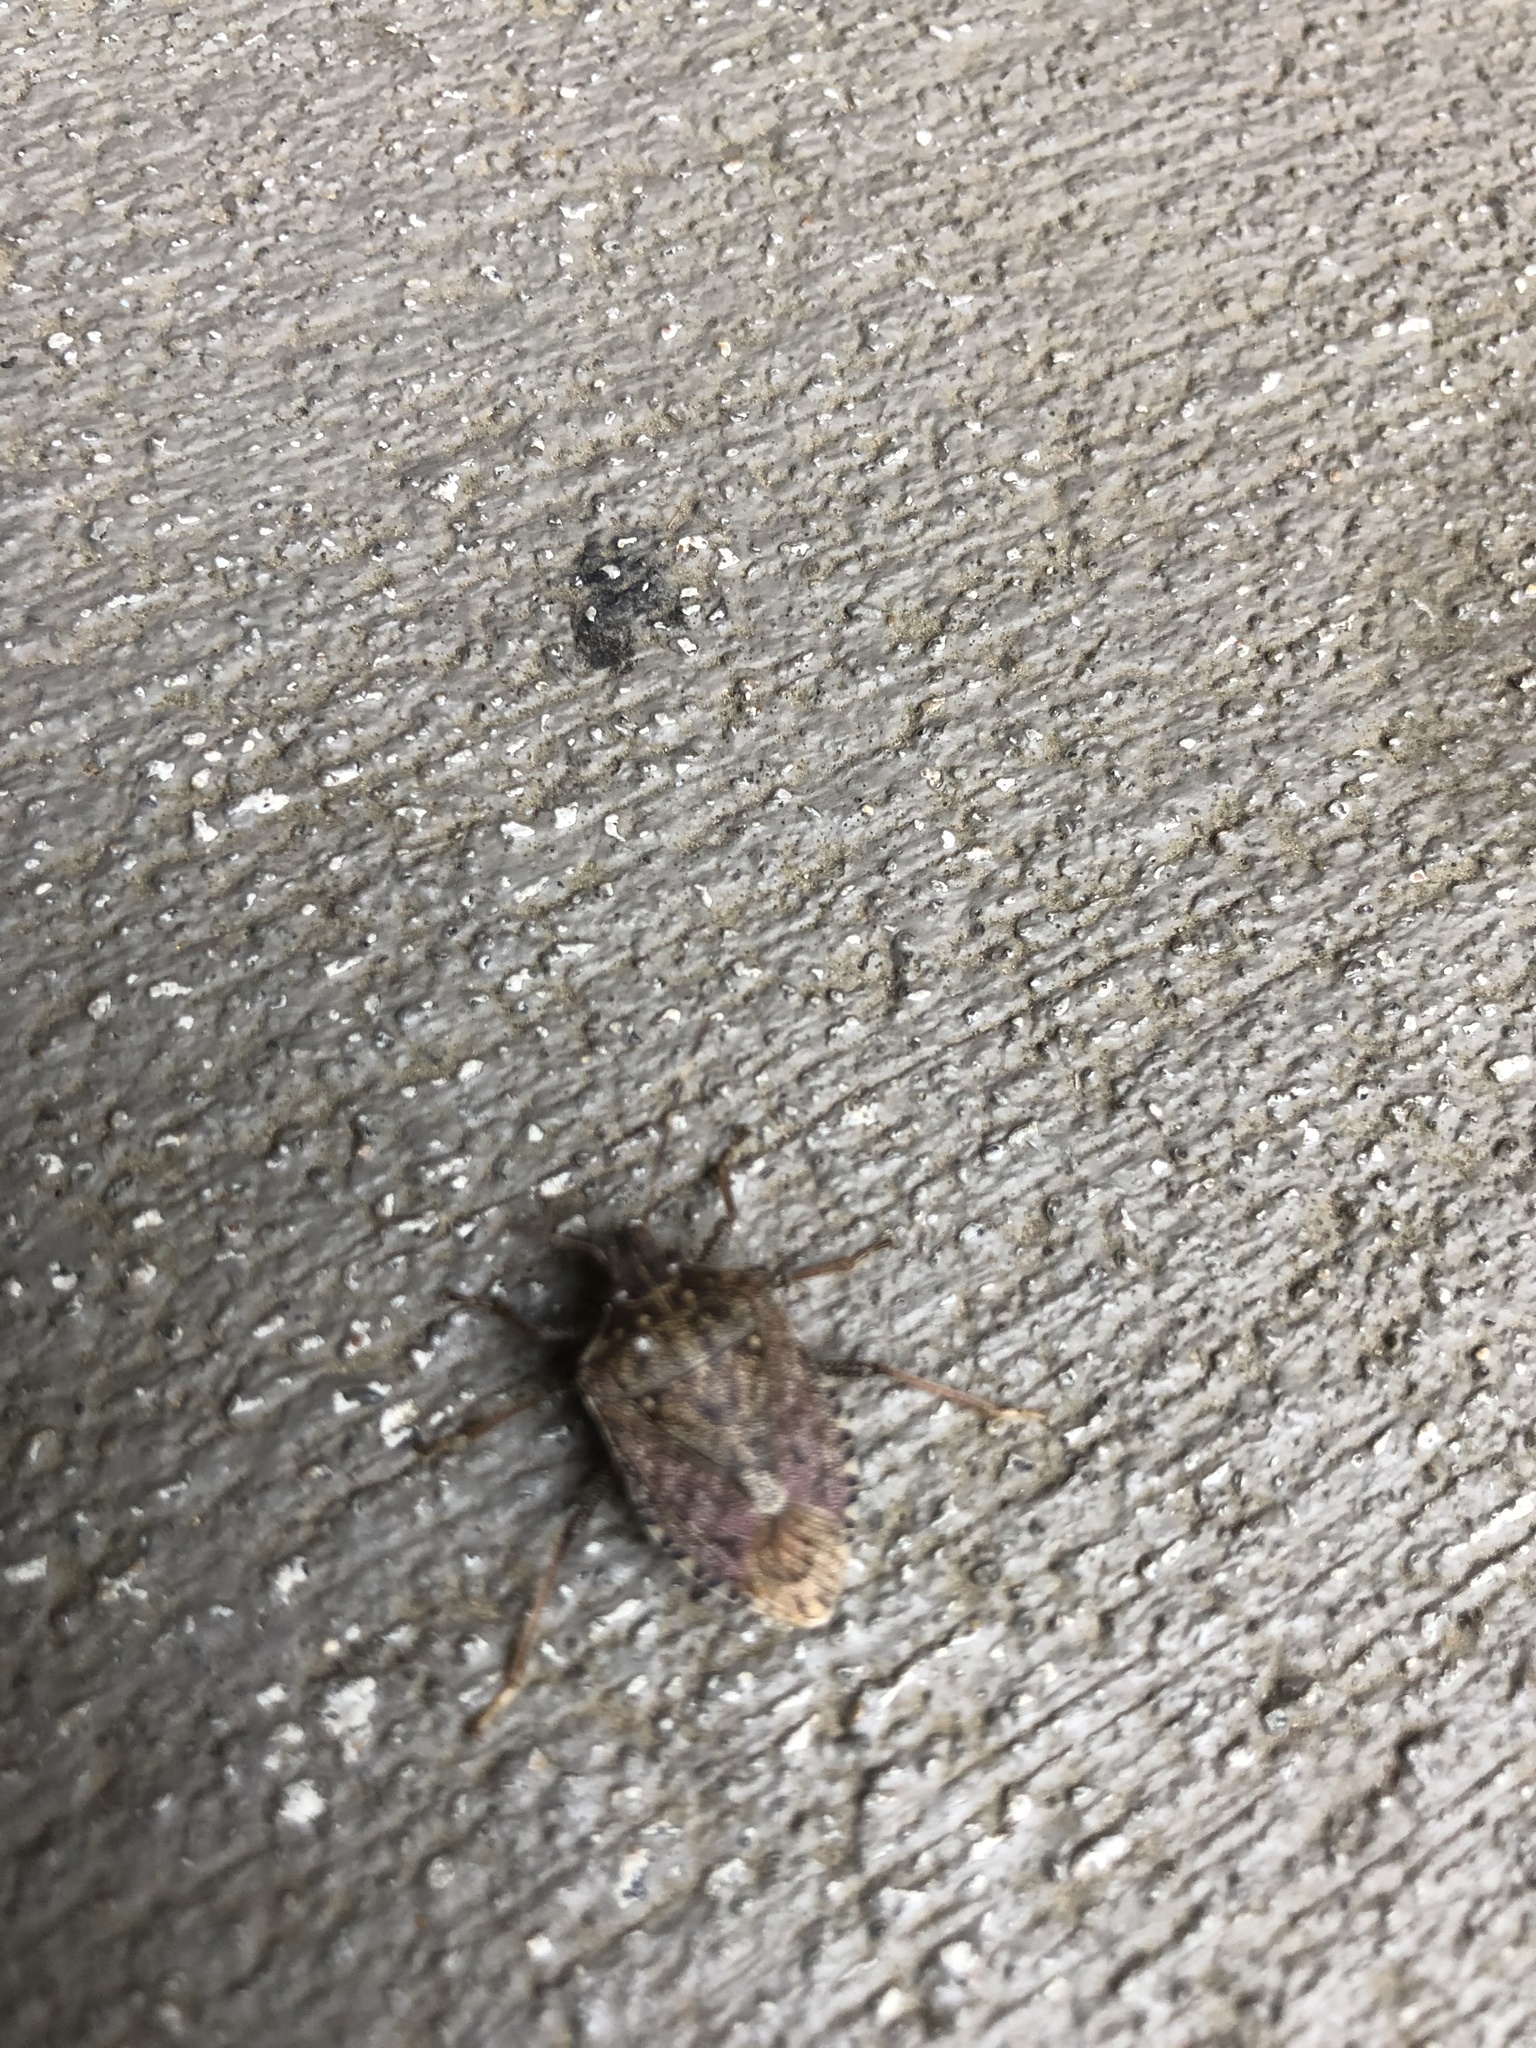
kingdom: Animalia
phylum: Arthropoda
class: Insecta
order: Hemiptera
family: Pentatomidae
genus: Halyomorpha
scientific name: Halyomorpha halys
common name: Brown marmorated stink bug
